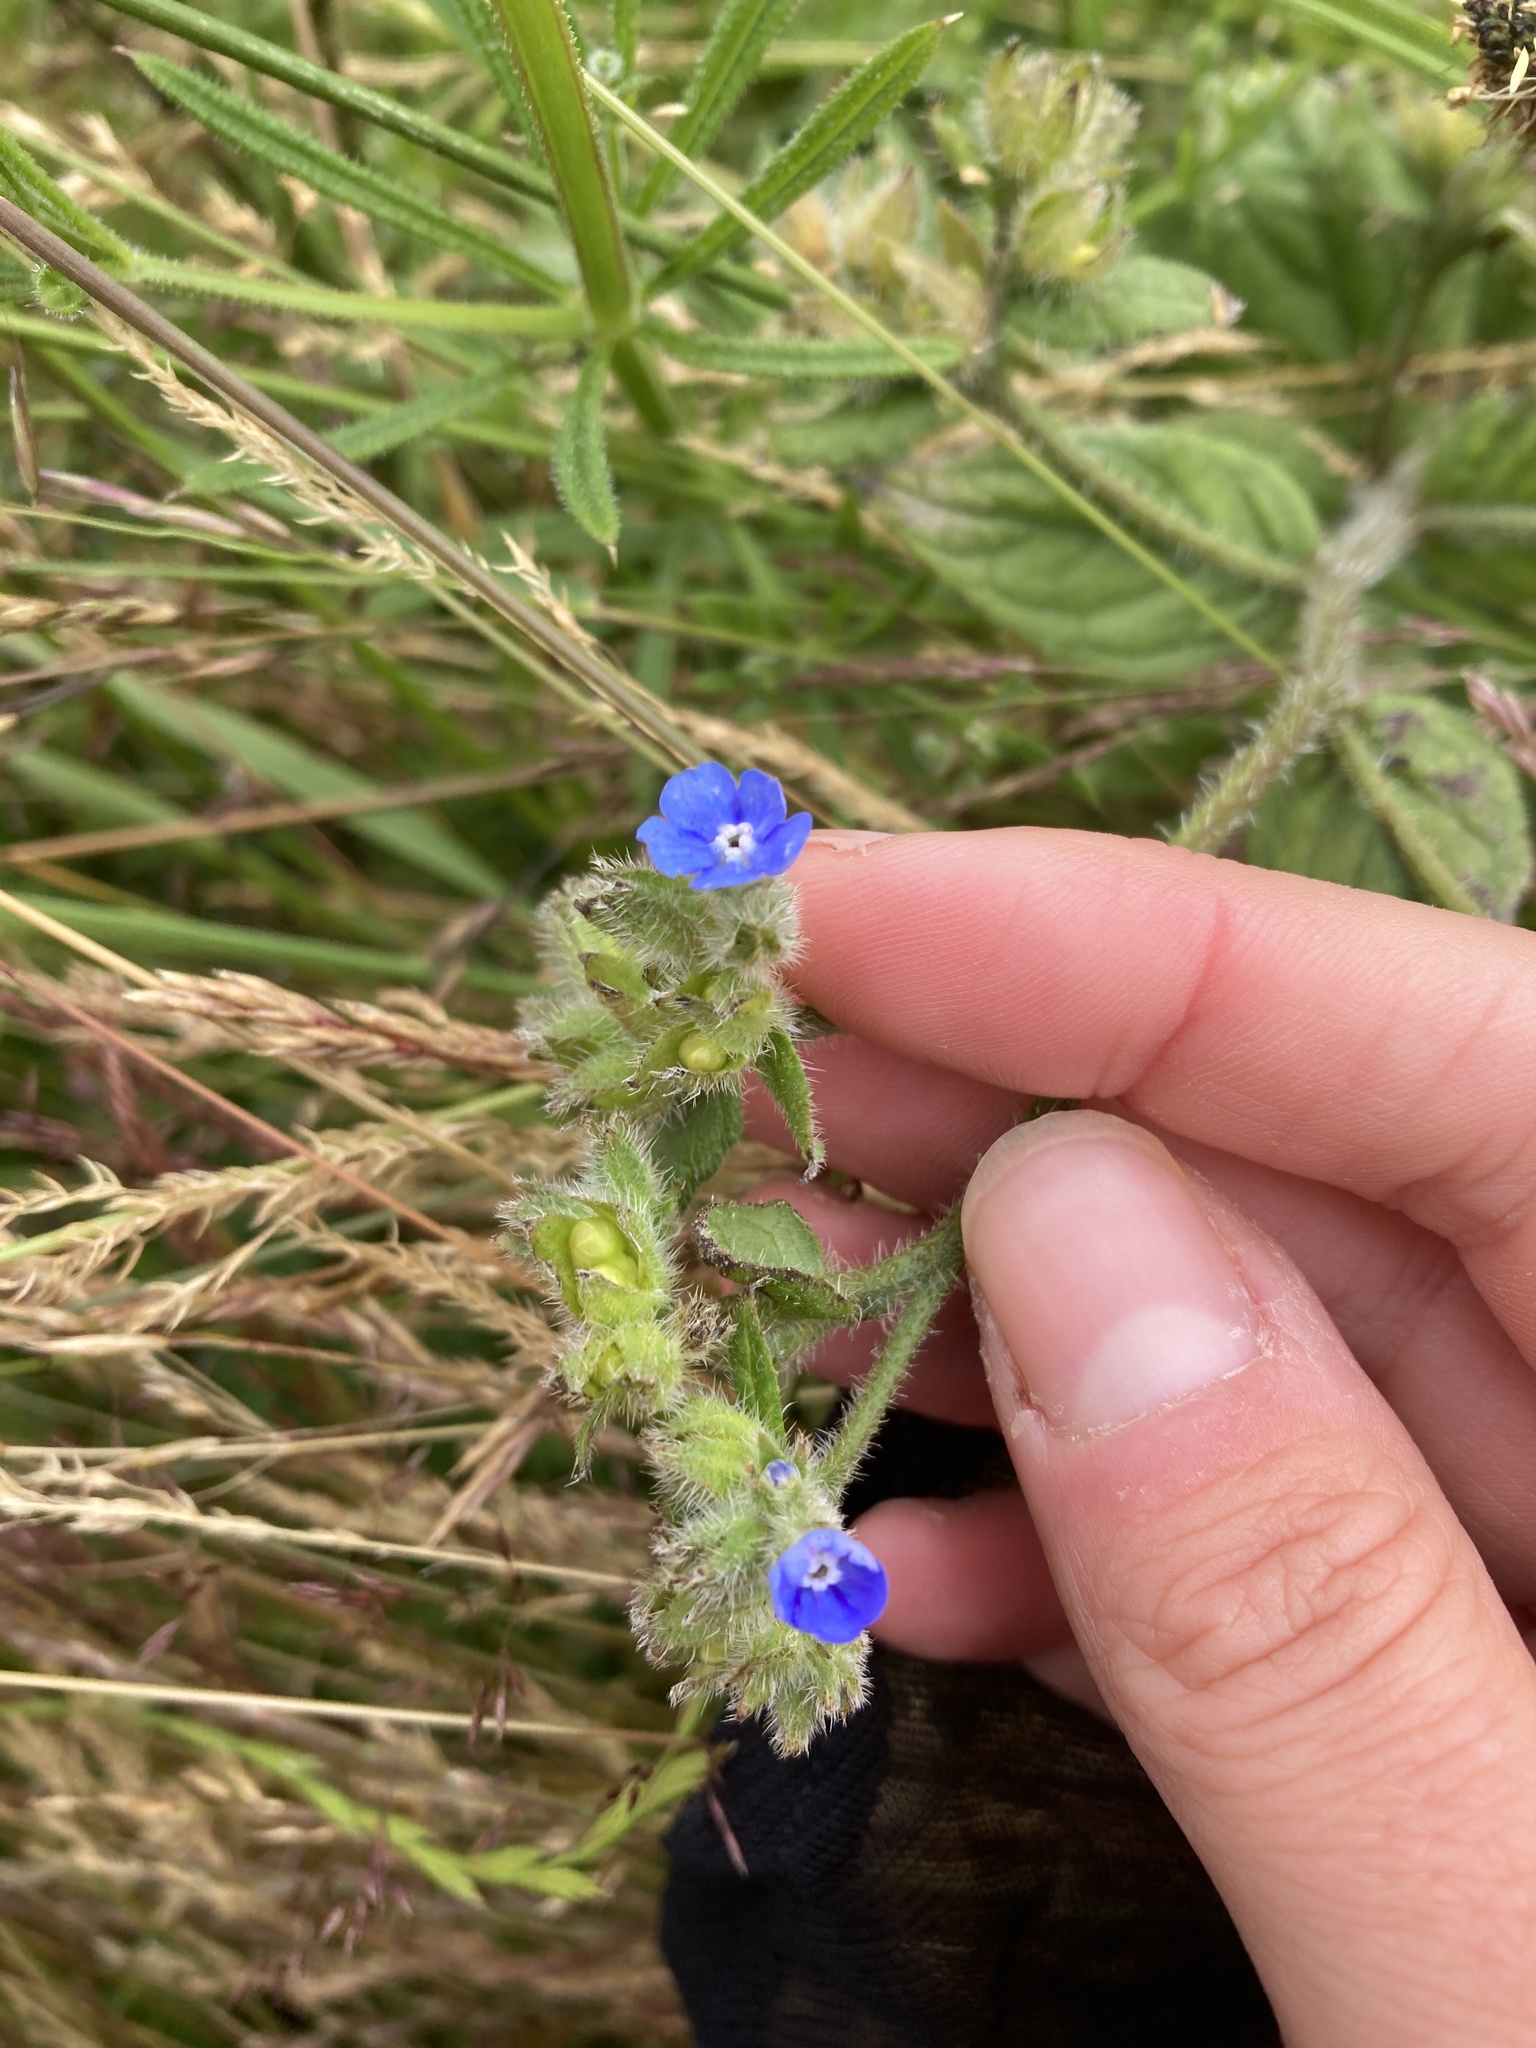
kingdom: Plantae
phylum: Tracheophyta
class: Magnoliopsida
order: Boraginales
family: Boraginaceae
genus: Pentaglottis
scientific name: Pentaglottis sempervirens
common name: Green alkanet
